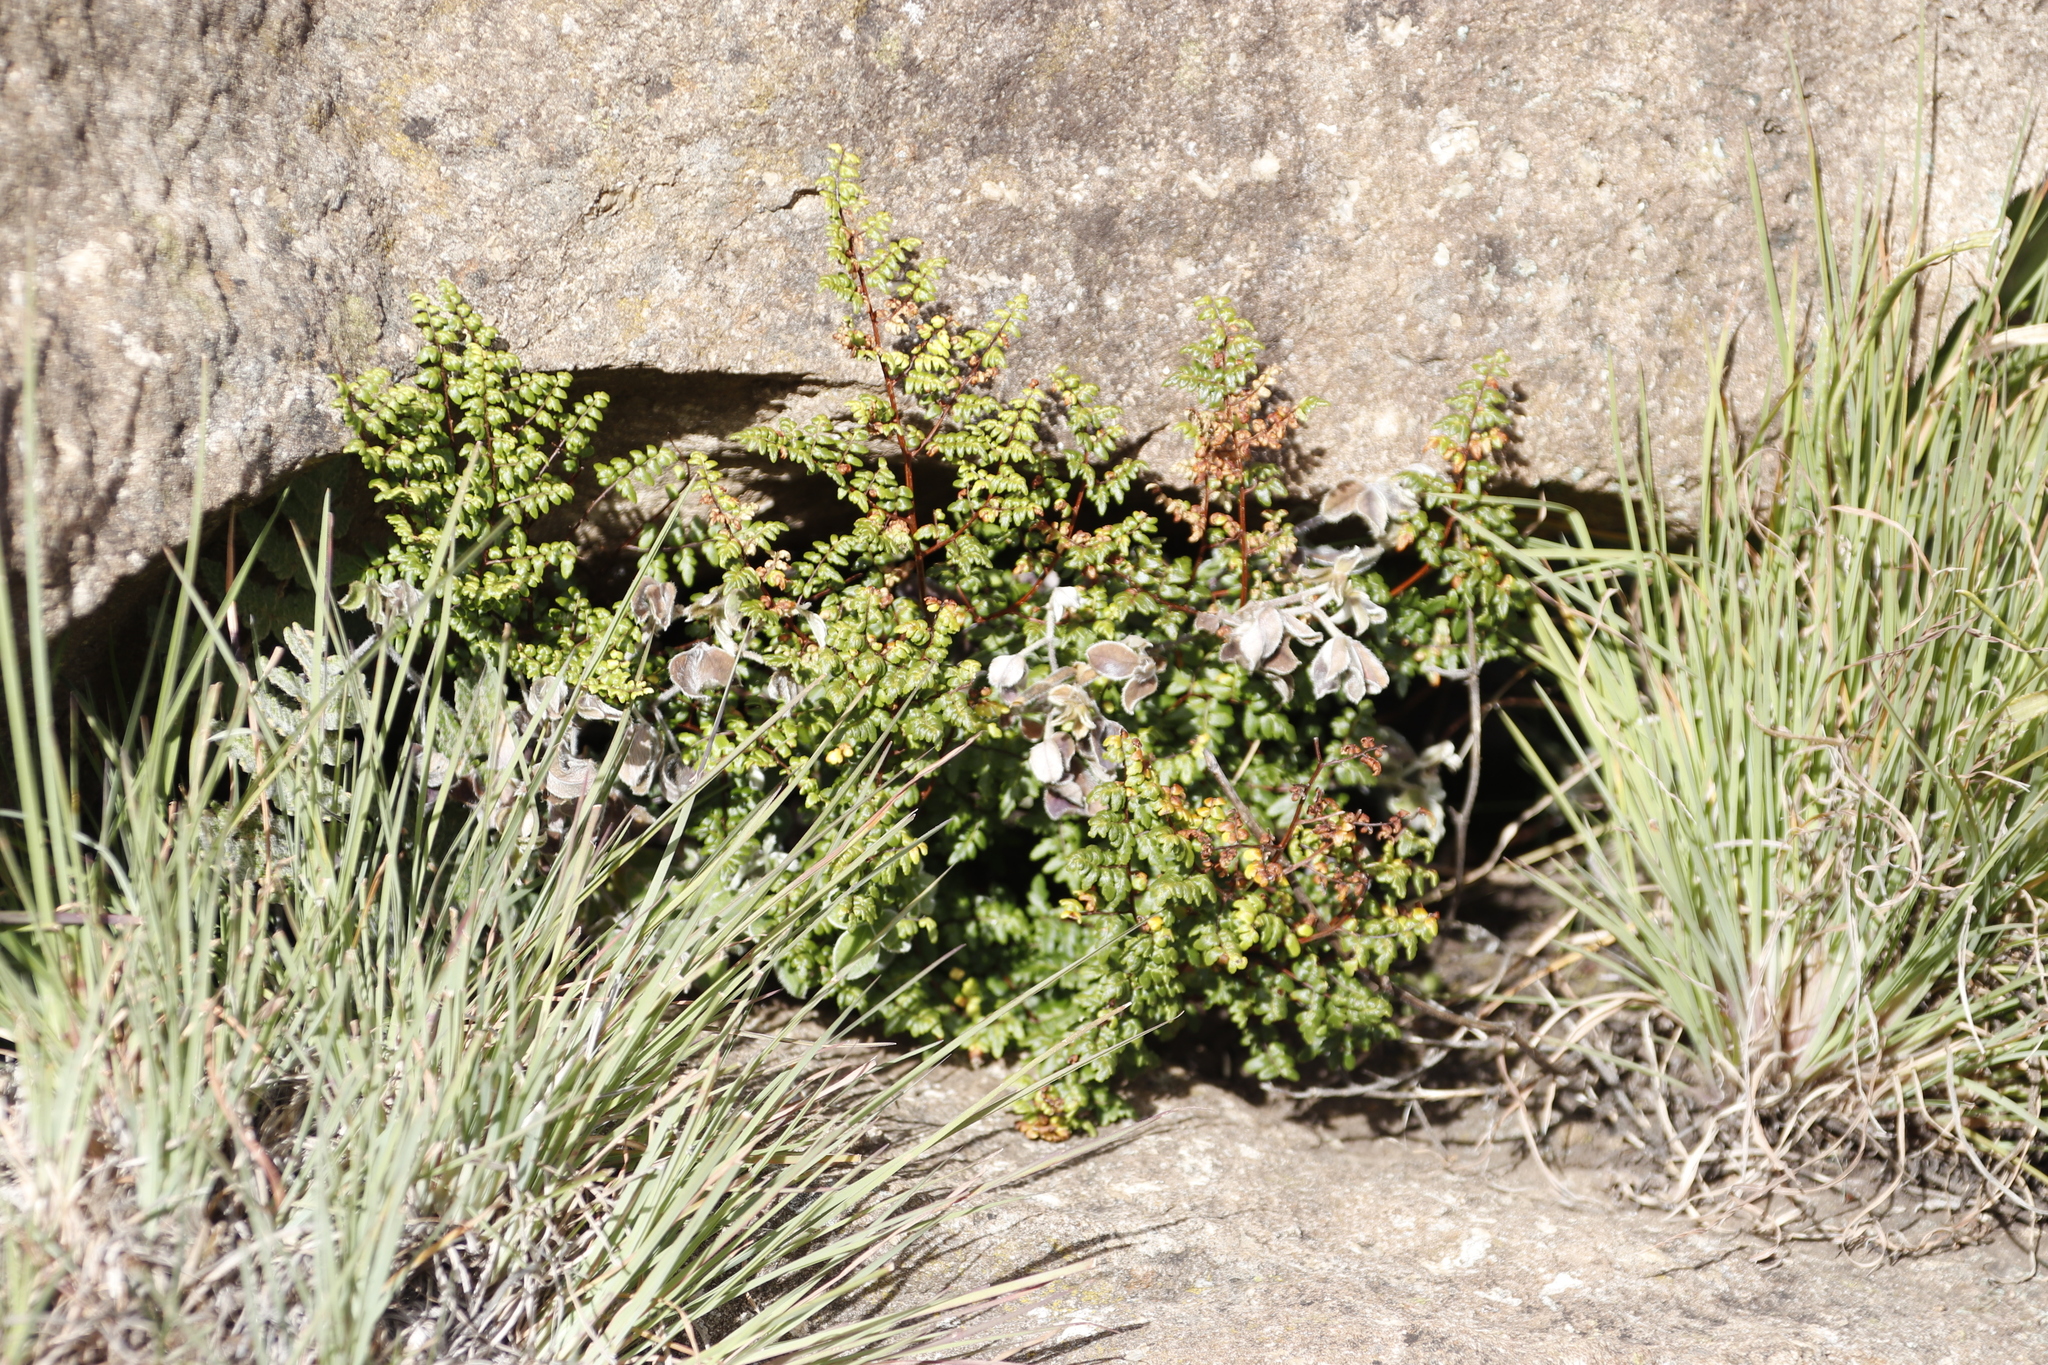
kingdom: Plantae
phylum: Tracheophyta
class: Polypodiopsida
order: Polypodiales
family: Pteridaceae
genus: Cheilanthes
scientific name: Cheilanthes quadripinnata
